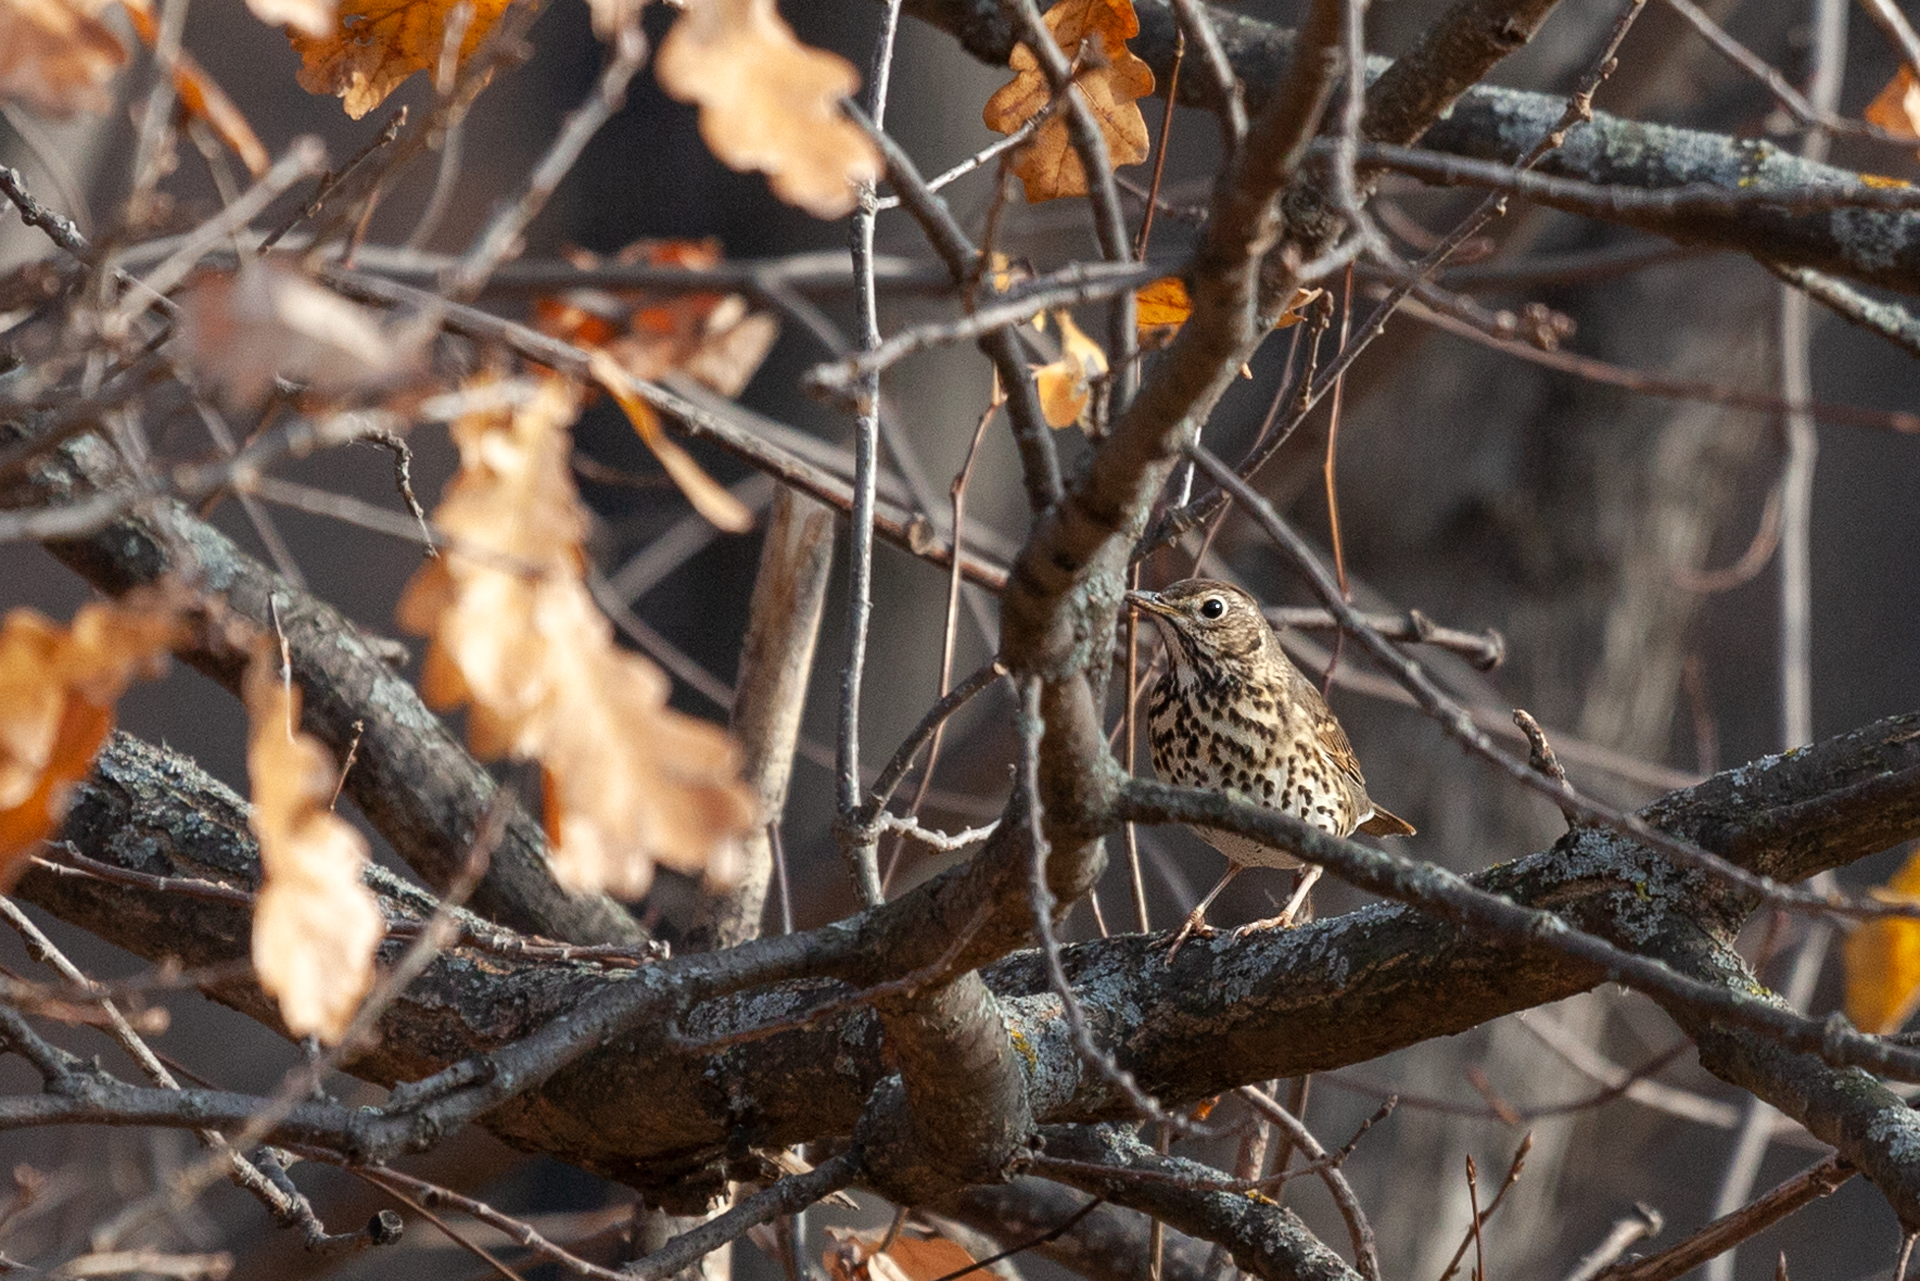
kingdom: Animalia
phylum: Chordata
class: Aves
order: Passeriformes
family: Turdidae
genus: Turdus
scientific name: Turdus philomelos
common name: Song thrush
